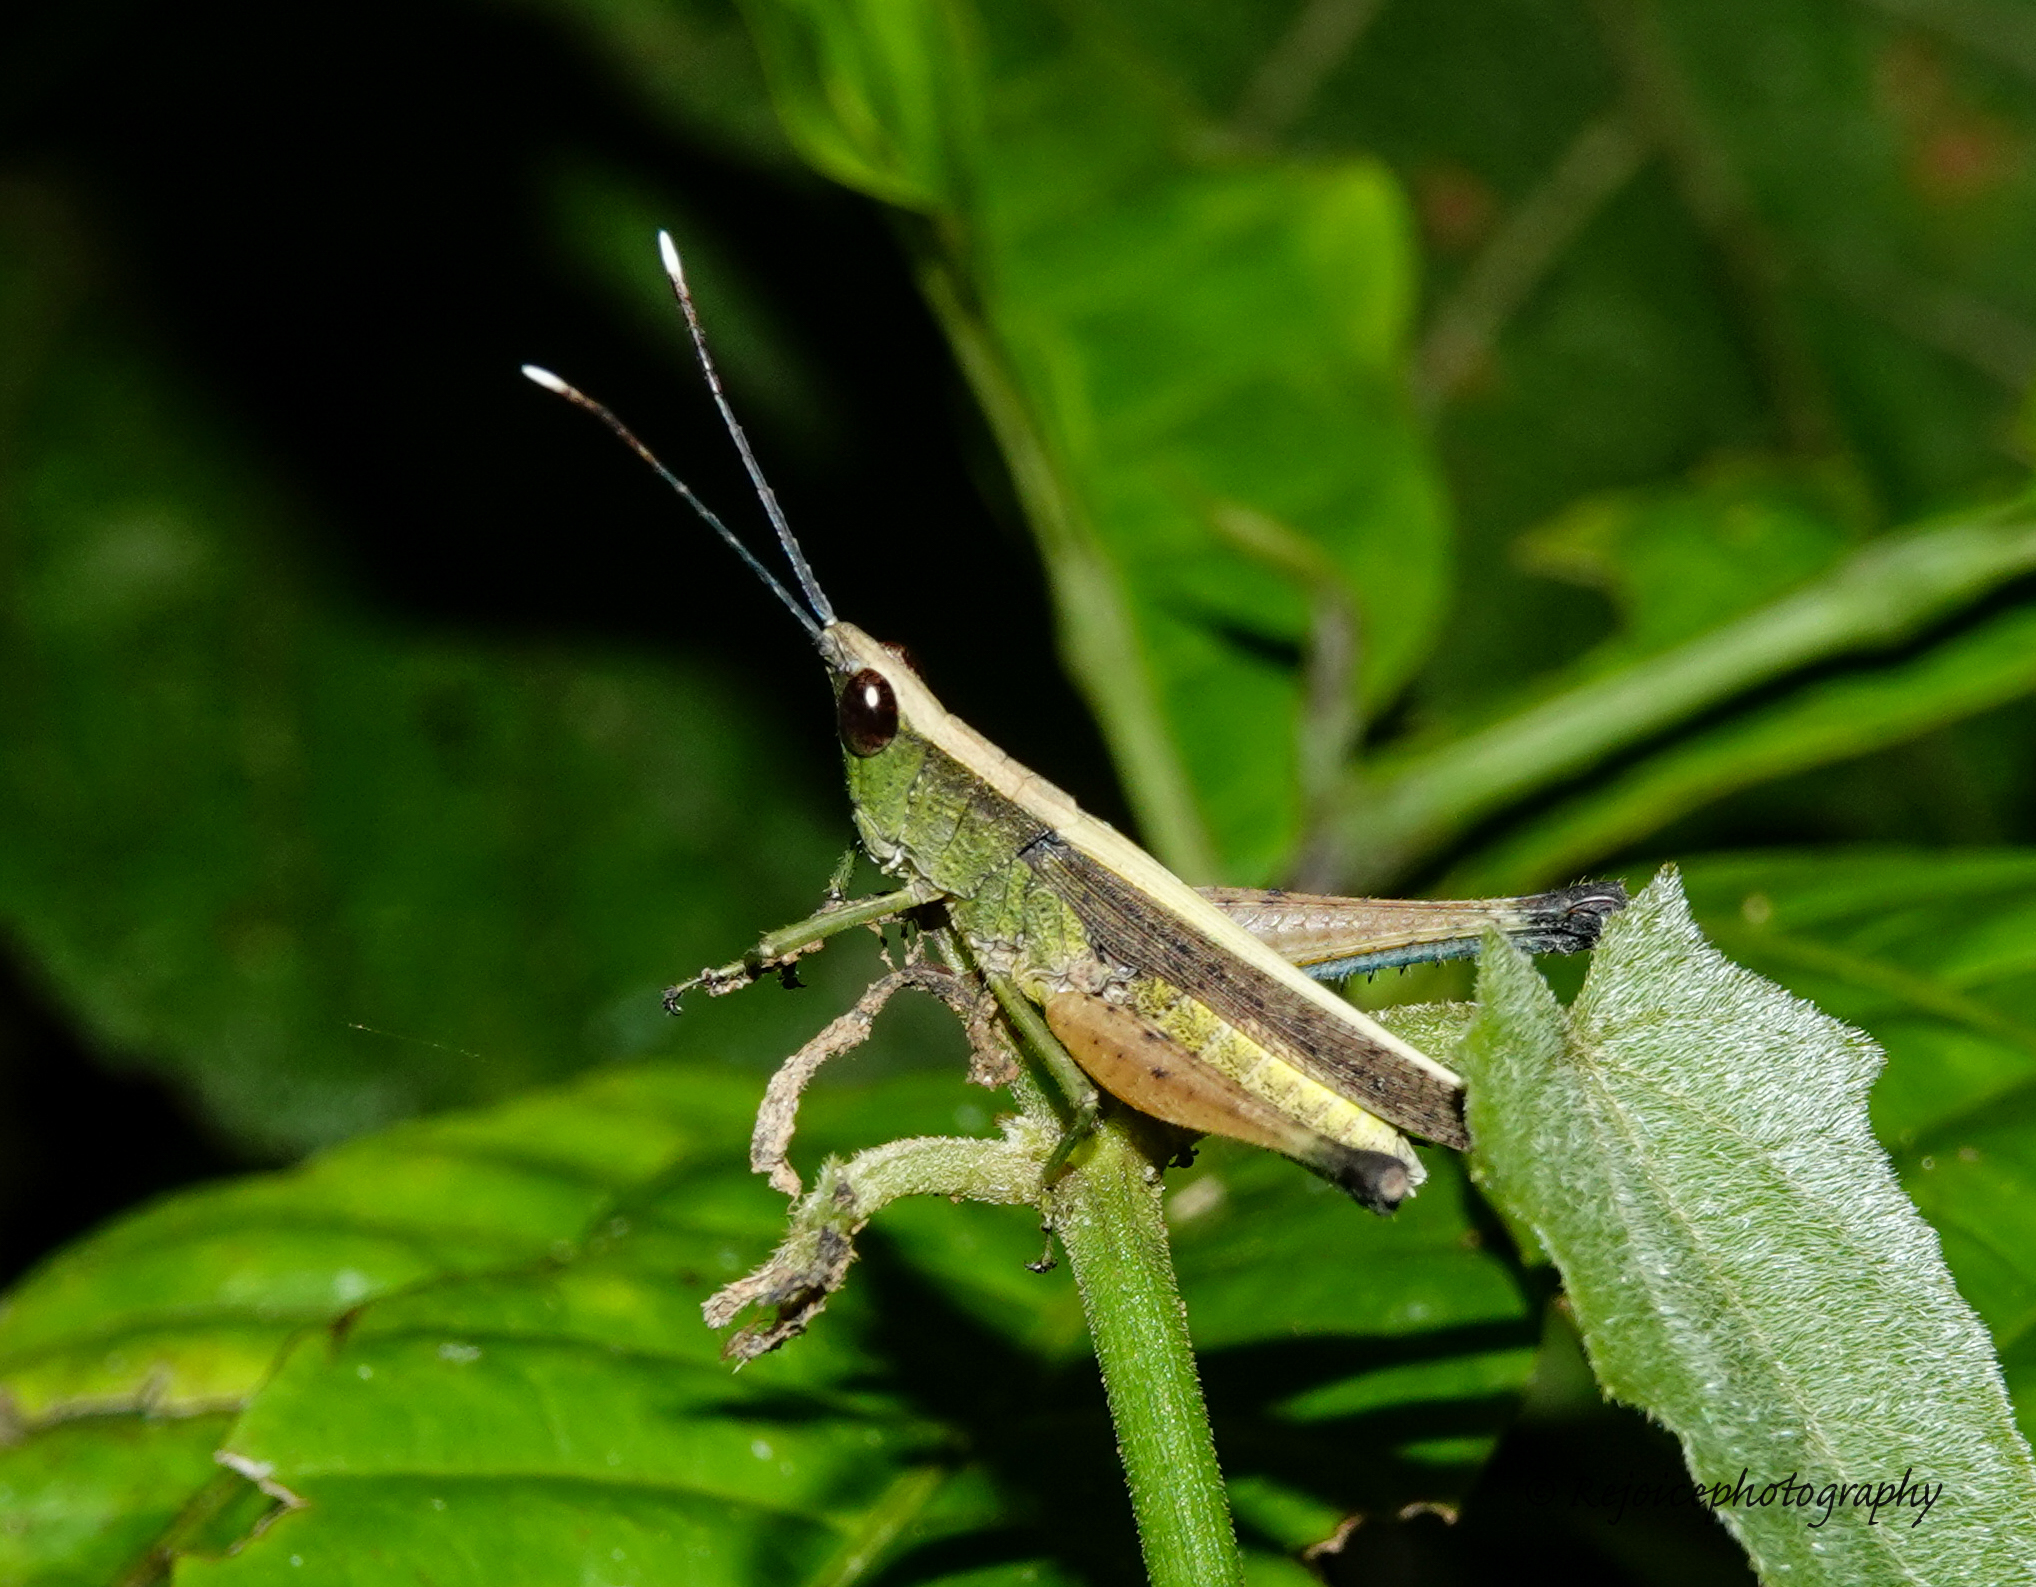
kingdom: Animalia
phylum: Arthropoda
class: Insecta
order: Orthoptera
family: Acrididae
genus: Phlaeoba
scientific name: Phlaeoba antennata
